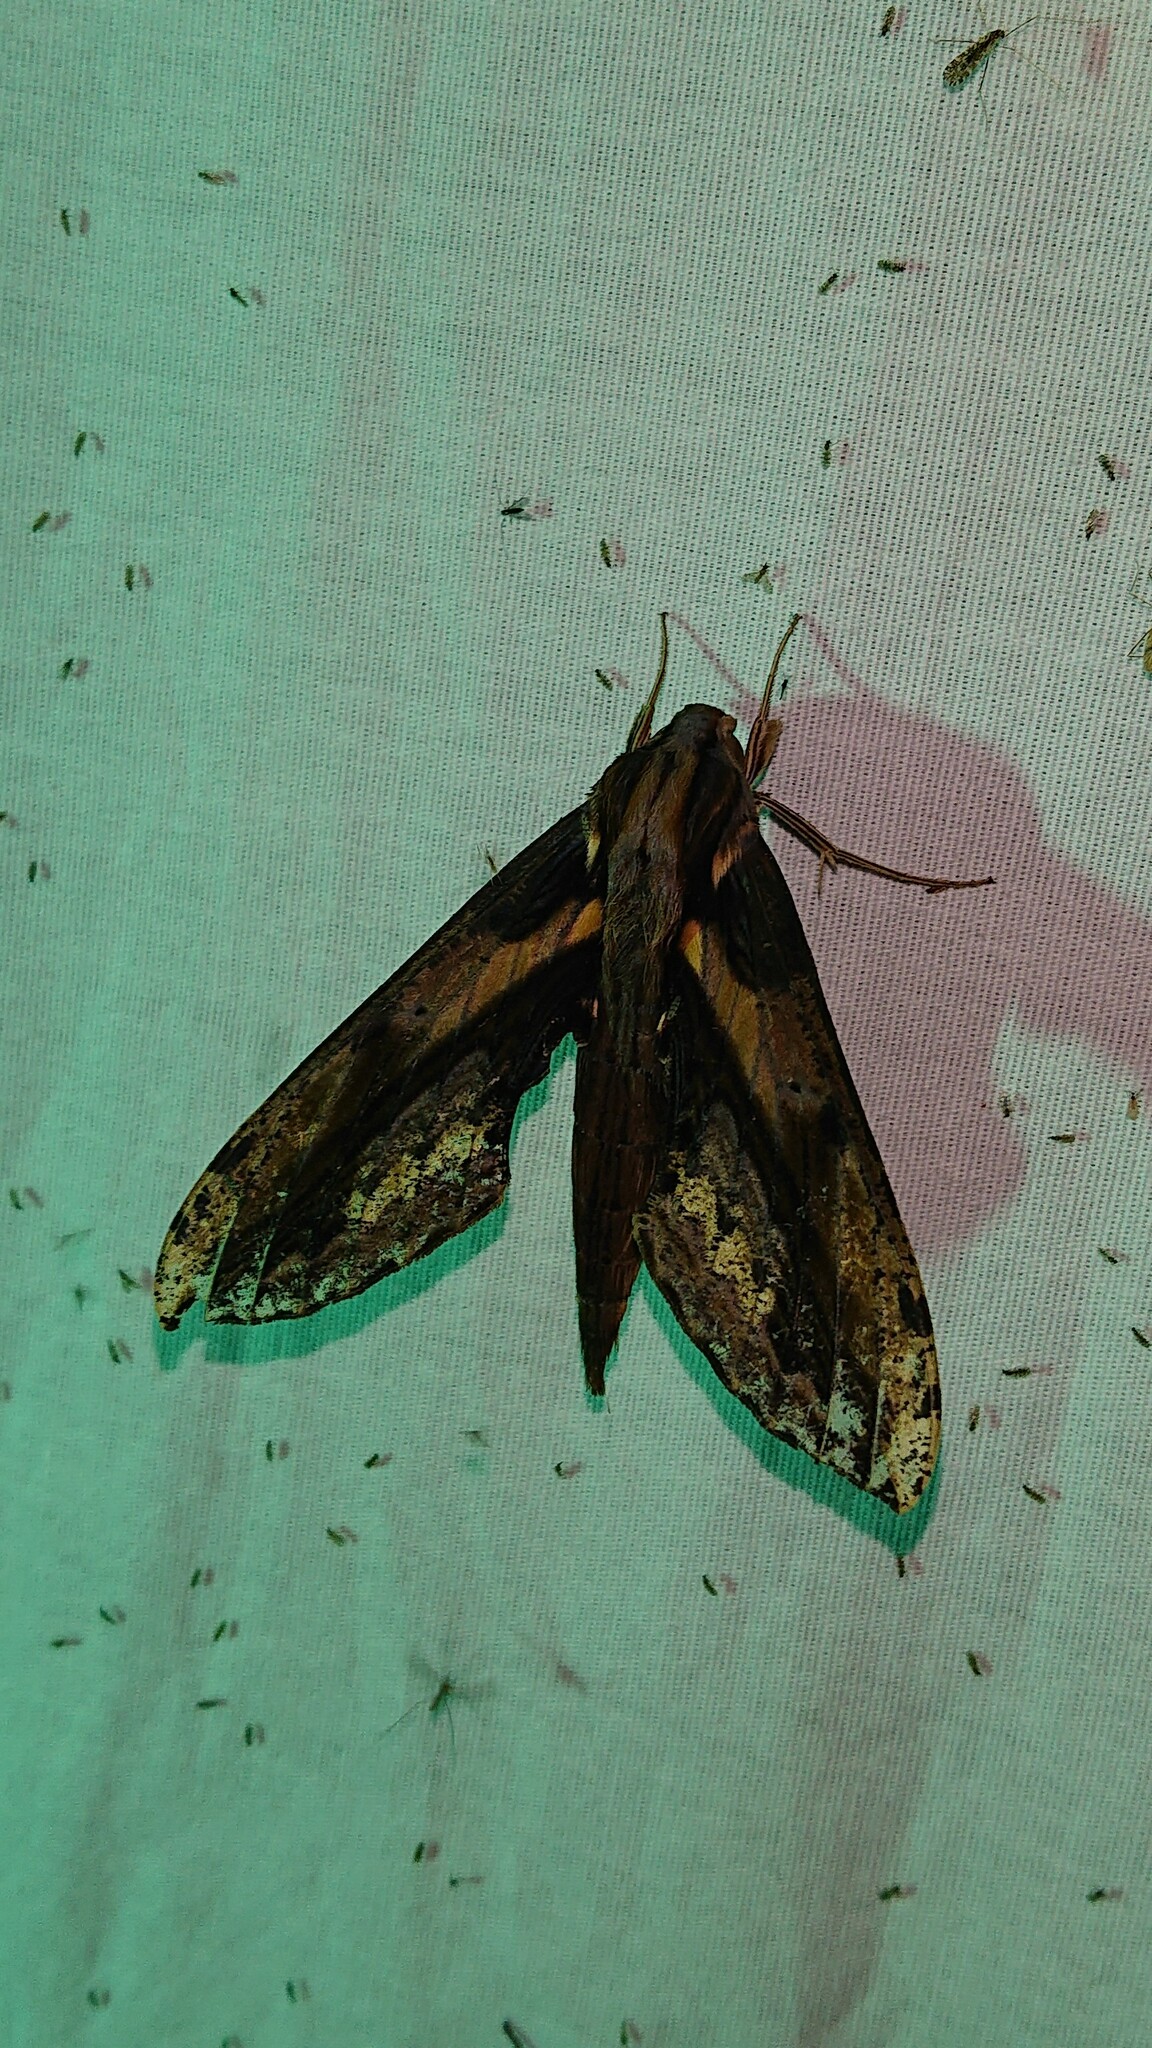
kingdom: Animalia
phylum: Arthropoda
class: Insecta
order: Lepidoptera
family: Sphingidae
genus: Xylophanes
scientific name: Xylophanes ceratomioides
